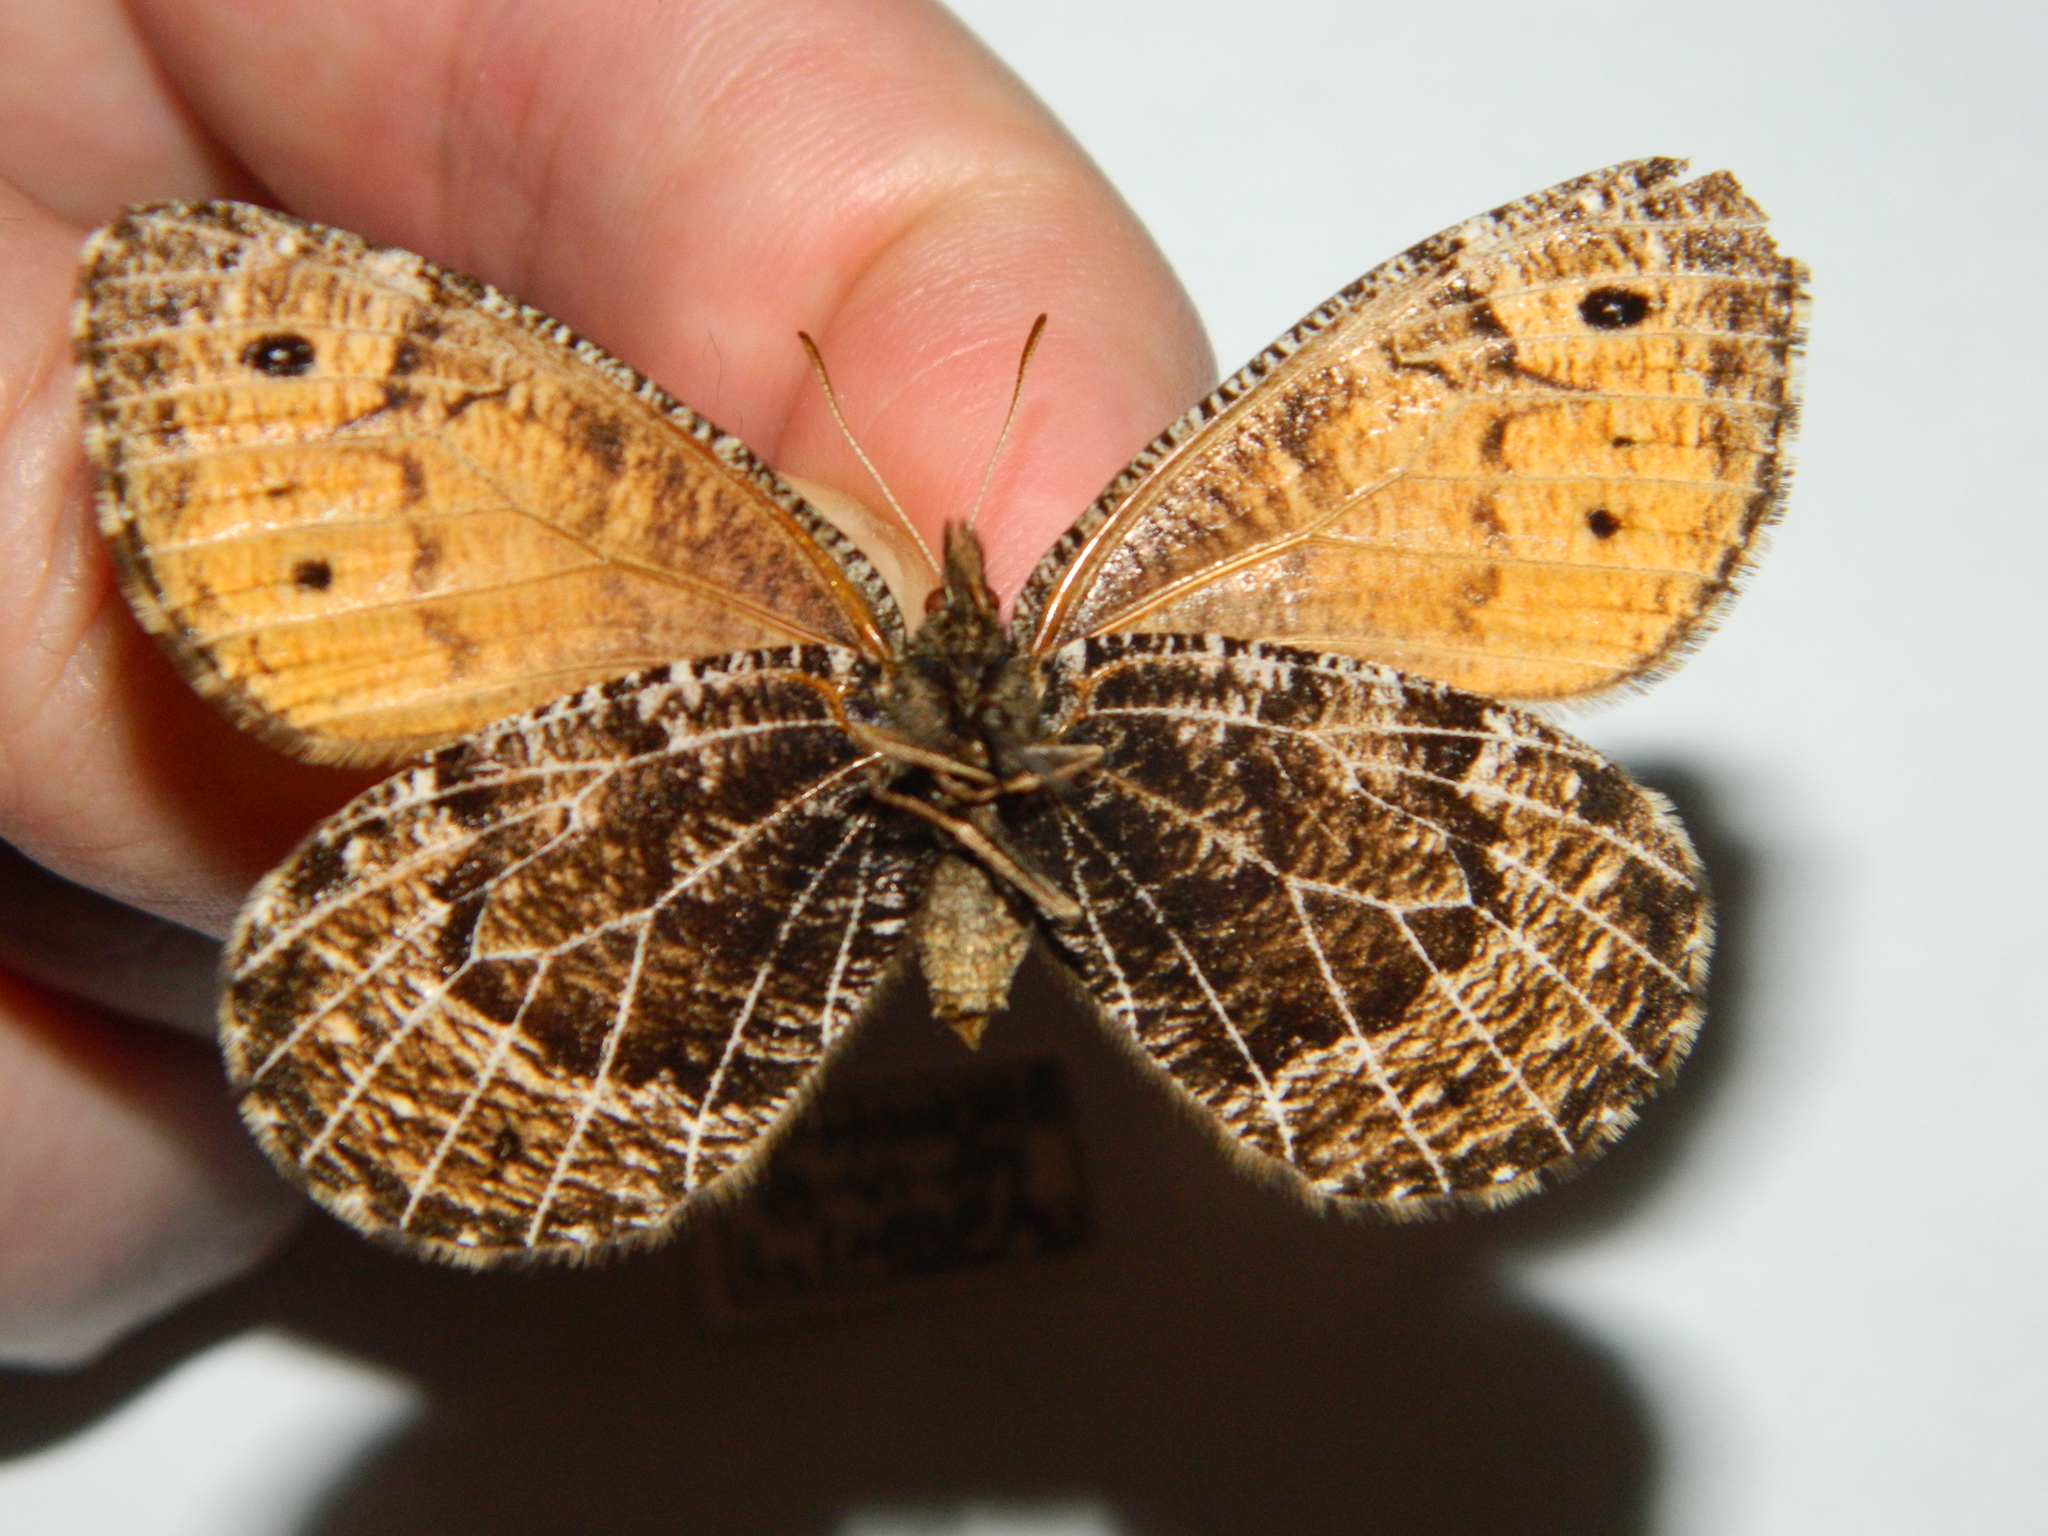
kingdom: Animalia
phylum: Arthropoda
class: Insecta
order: Lepidoptera
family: Nymphalidae
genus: Oeneis
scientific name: Oeneis chryxus
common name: Chryxus arctic
